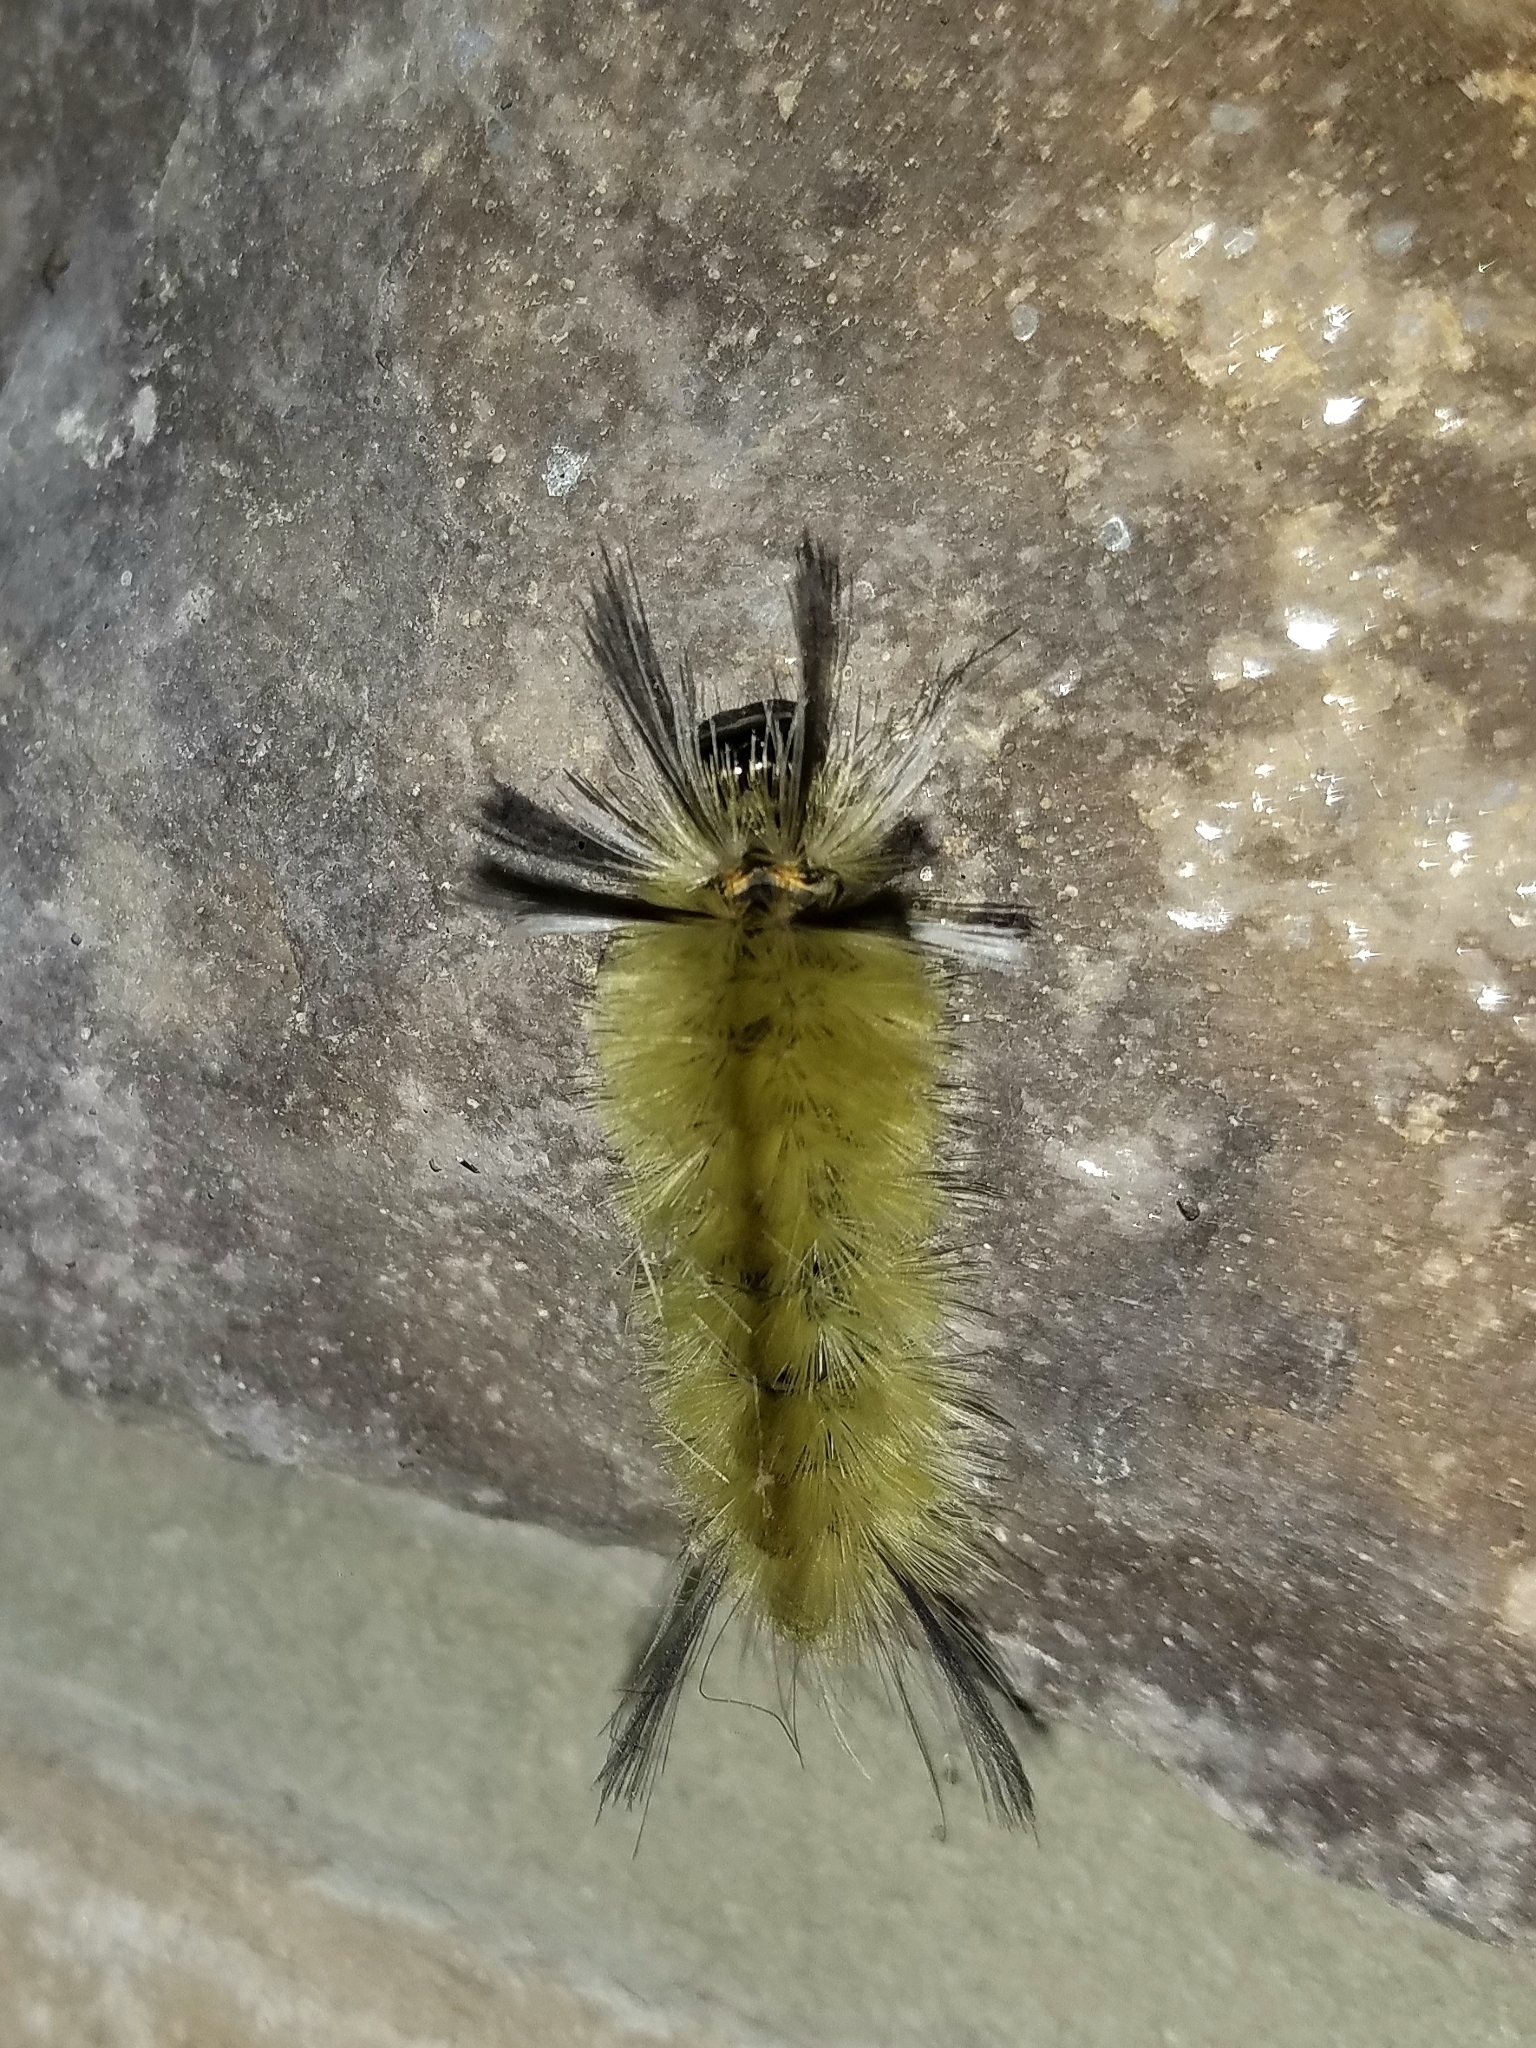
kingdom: Animalia
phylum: Arthropoda
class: Insecta
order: Lepidoptera
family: Erebidae
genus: Halysidota
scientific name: Halysidota tessellaris
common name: Banded tussock moth
